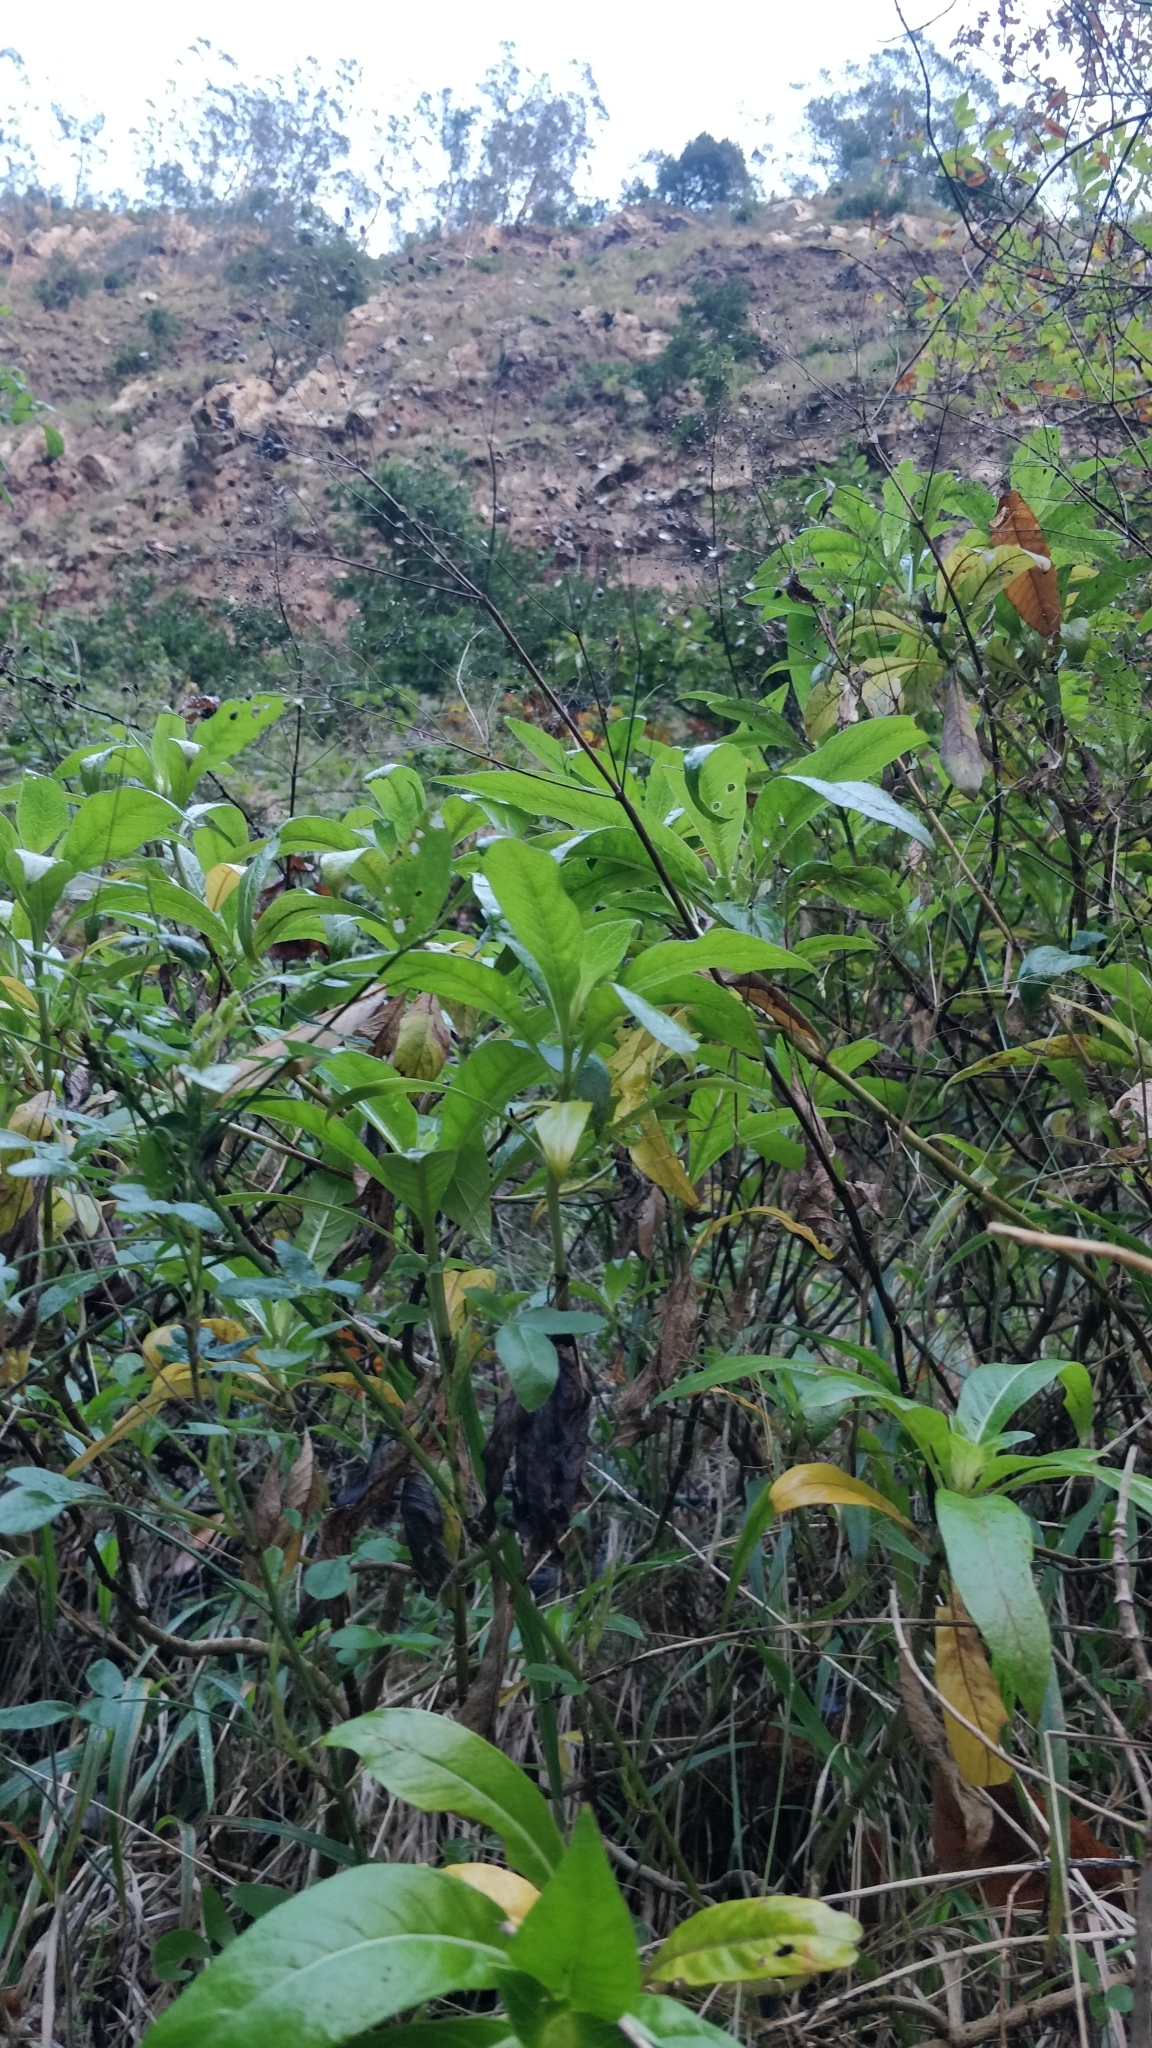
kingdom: Plantae
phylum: Tracheophyta
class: Magnoliopsida
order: Gentianales
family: Rubiaceae
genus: Phyllis
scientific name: Phyllis nobla
